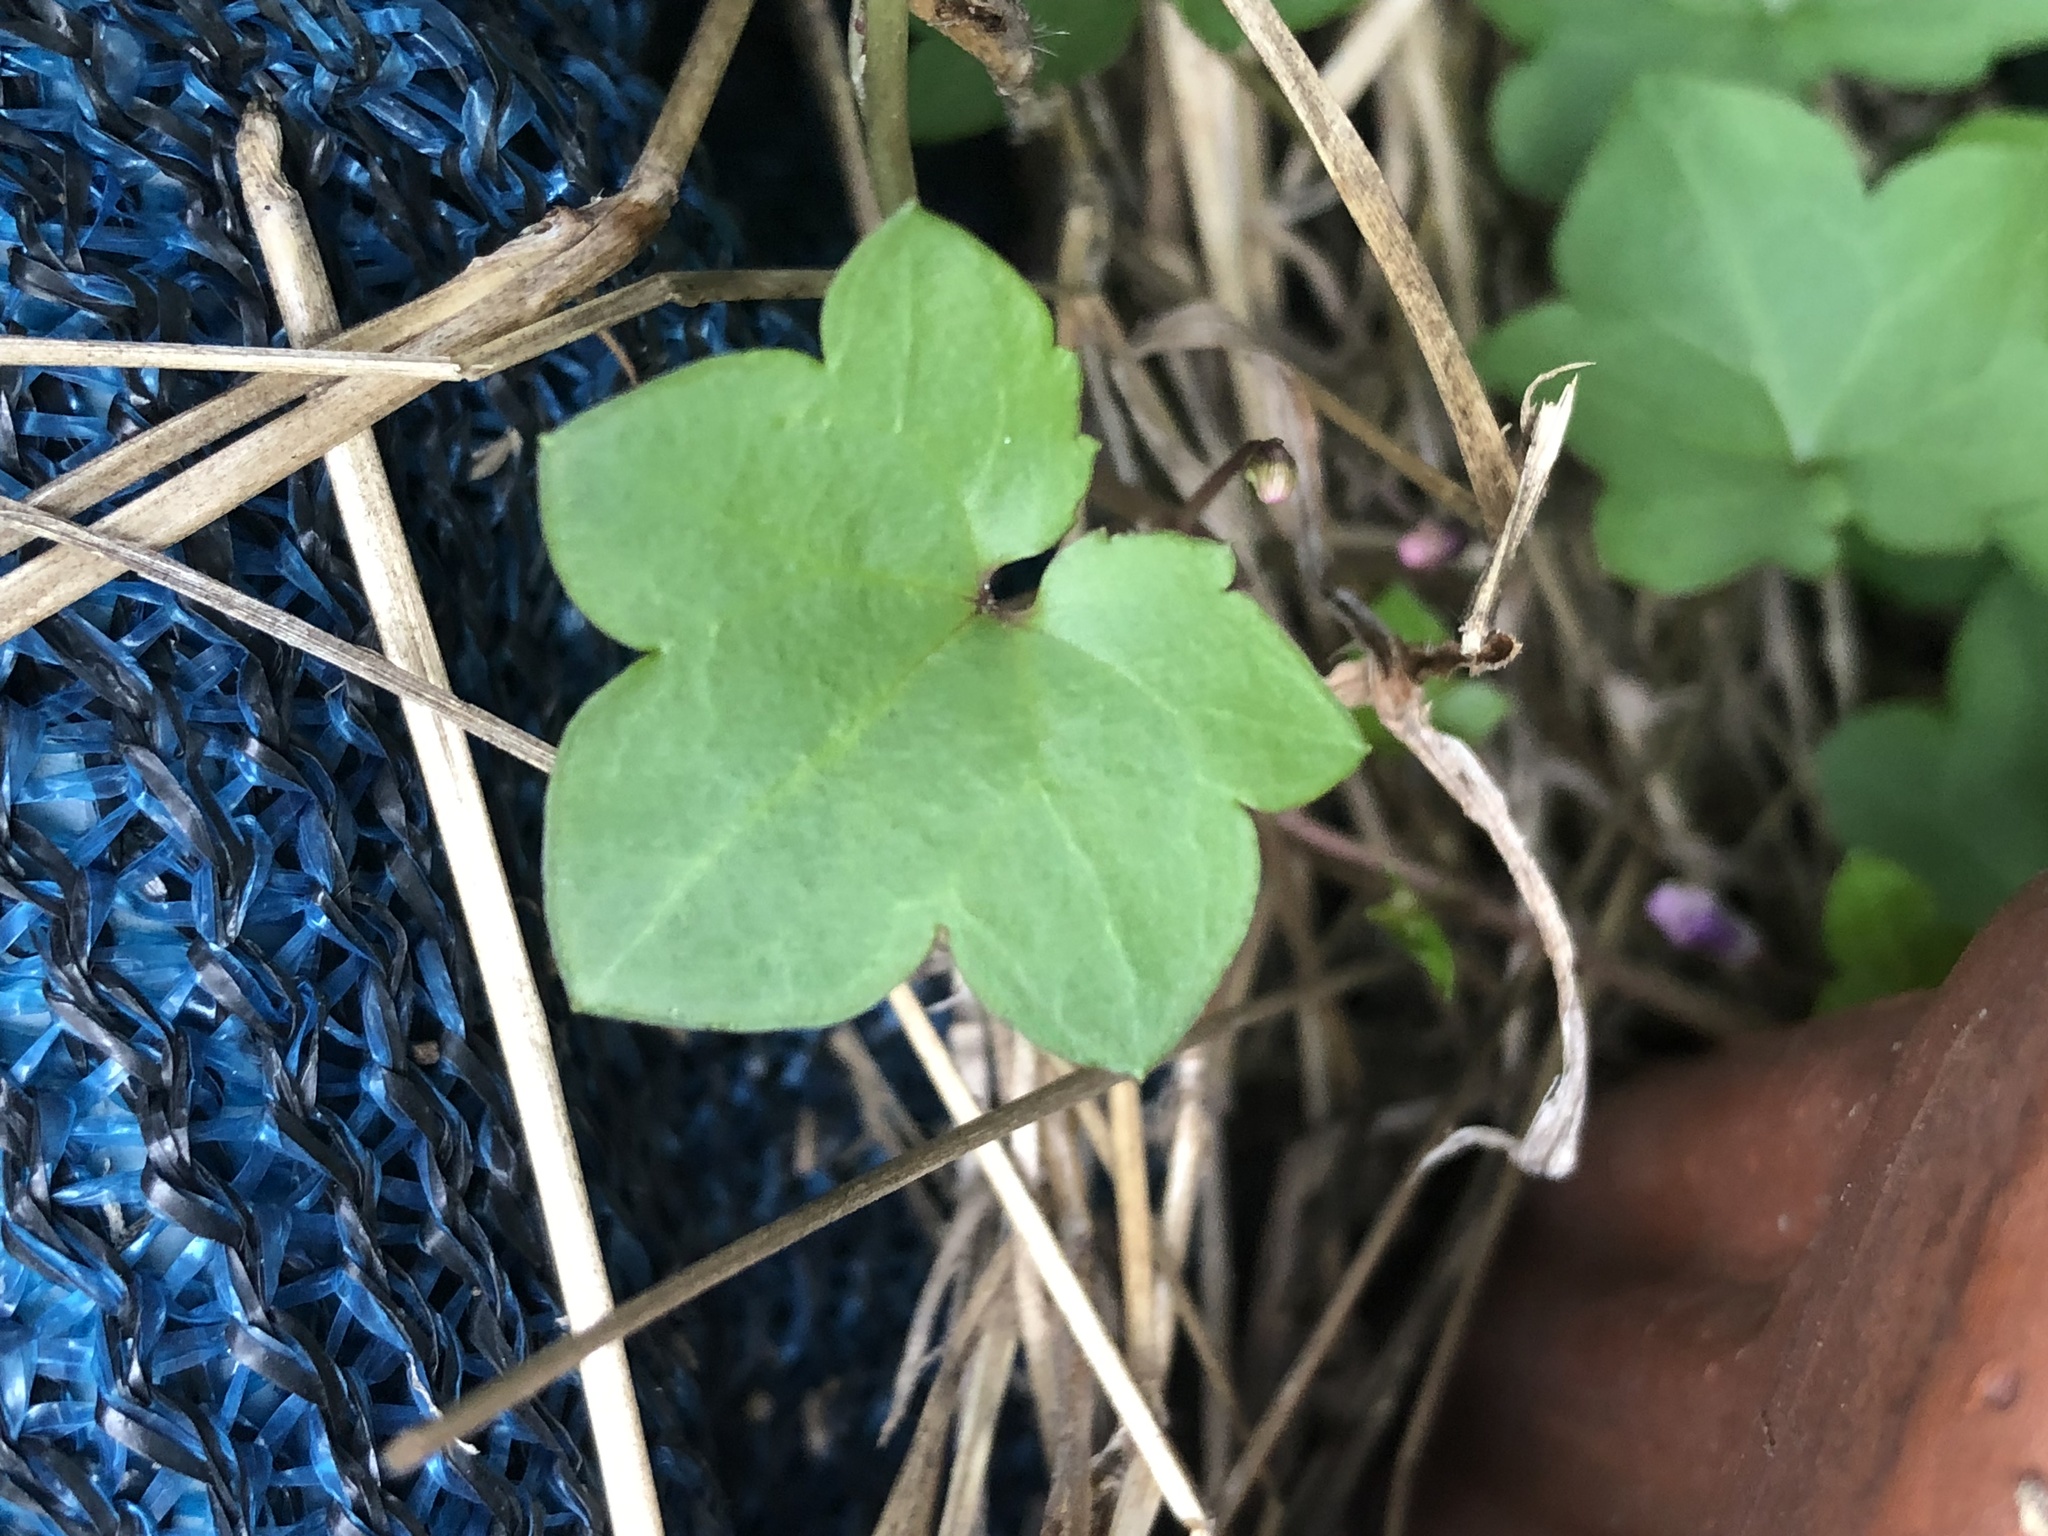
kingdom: Plantae
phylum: Tracheophyta
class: Magnoliopsida
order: Lamiales
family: Plantaginaceae
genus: Cymbalaria
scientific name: Cymbalaria muralis
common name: Ivy-leaved toadflax
